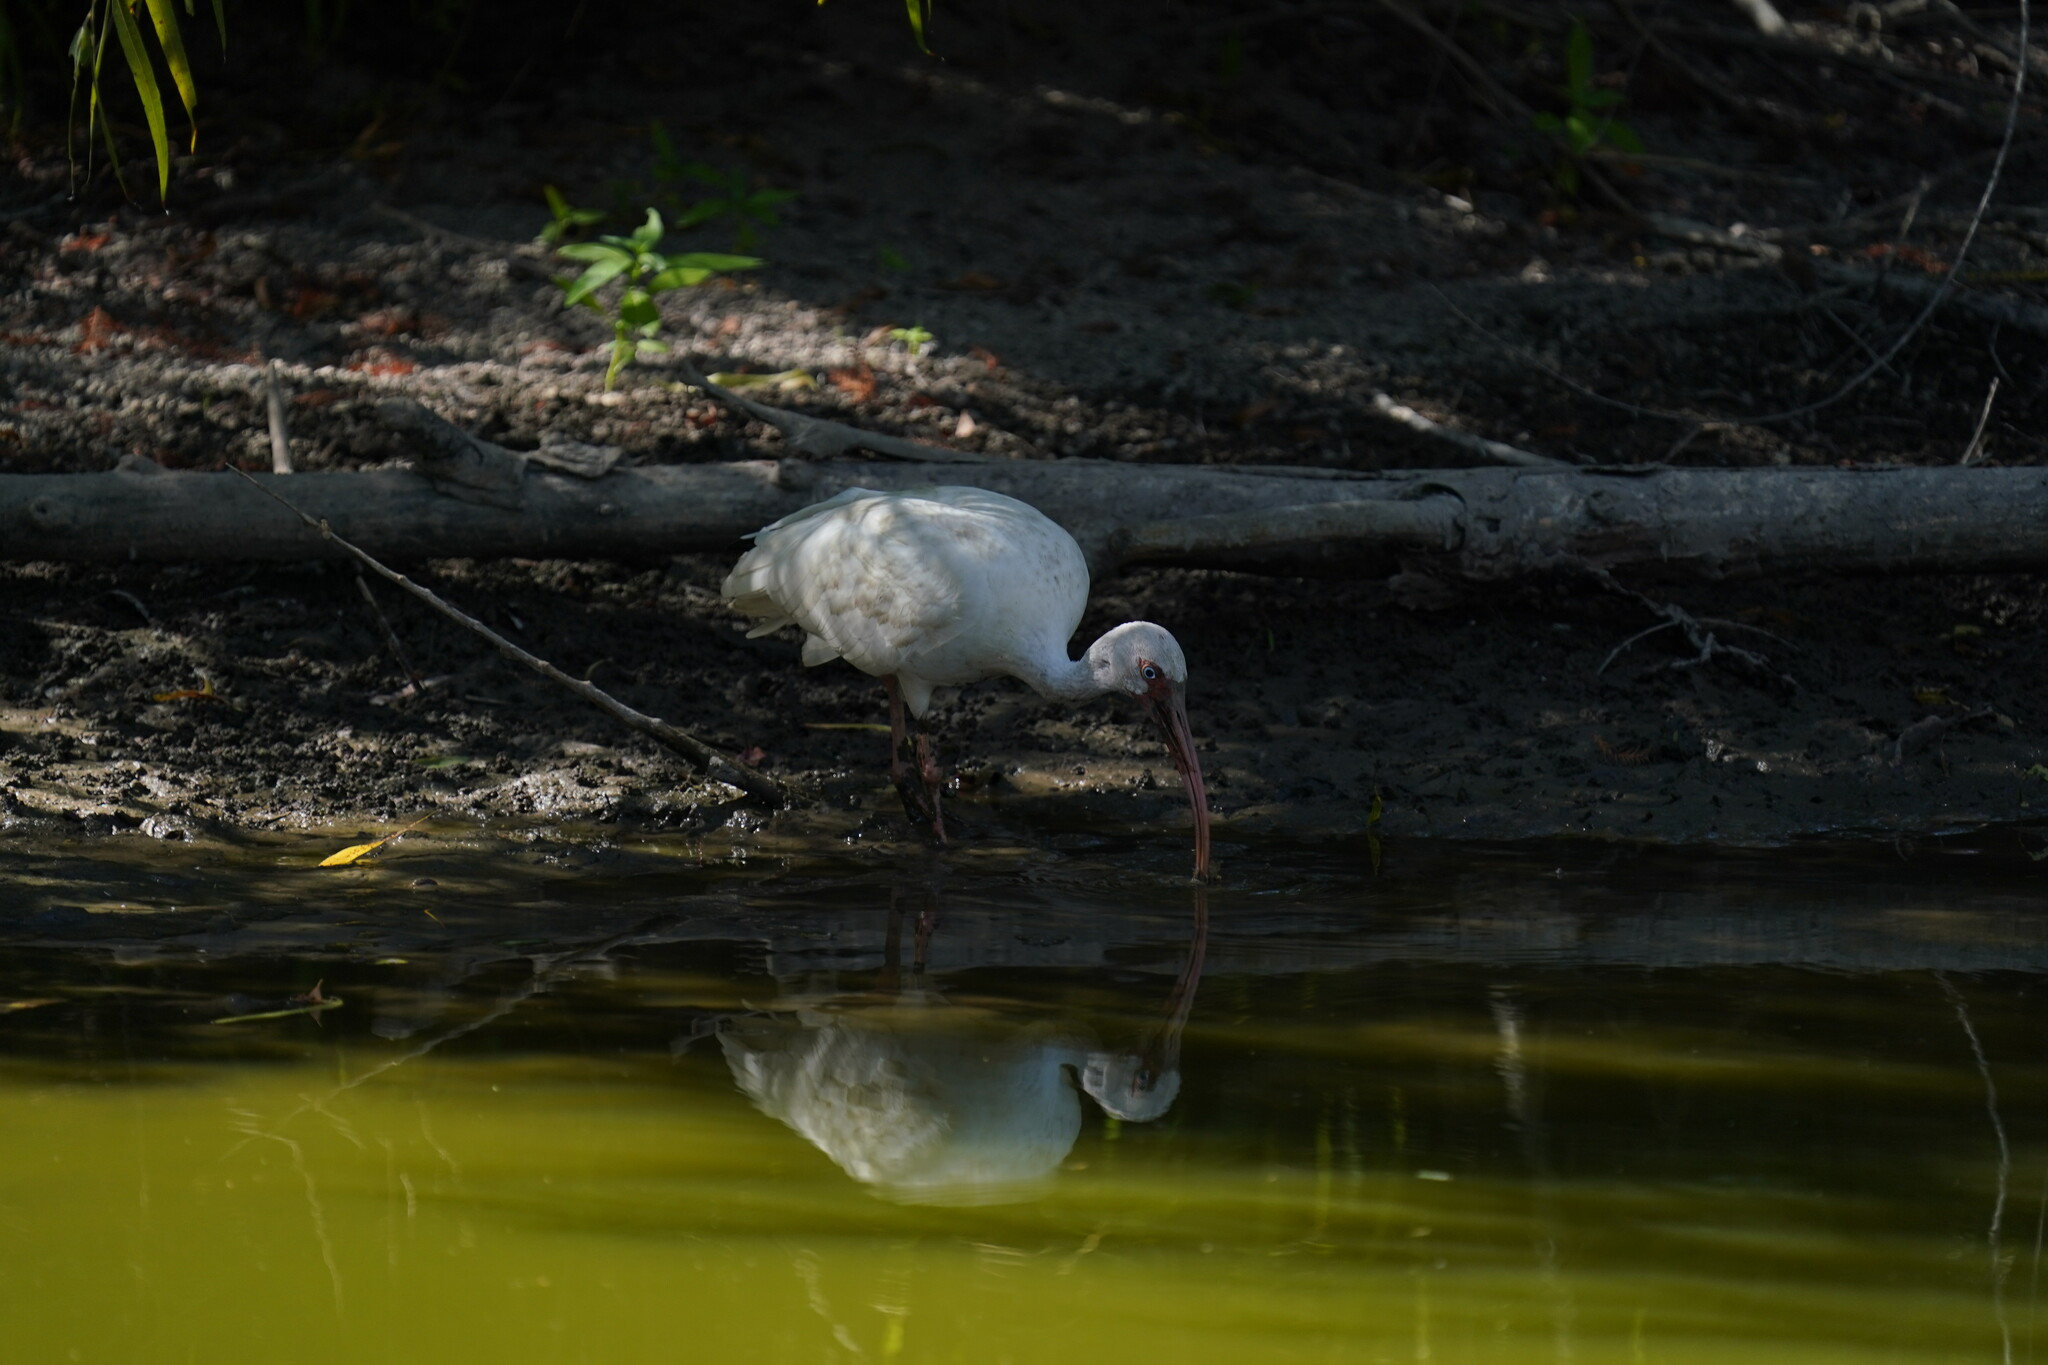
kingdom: Animalia
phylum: Chordata
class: Aves
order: Pelecaniformes
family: Threskiornithidae
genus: Eudocimus
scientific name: Eudocimus albus
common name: White ibis
